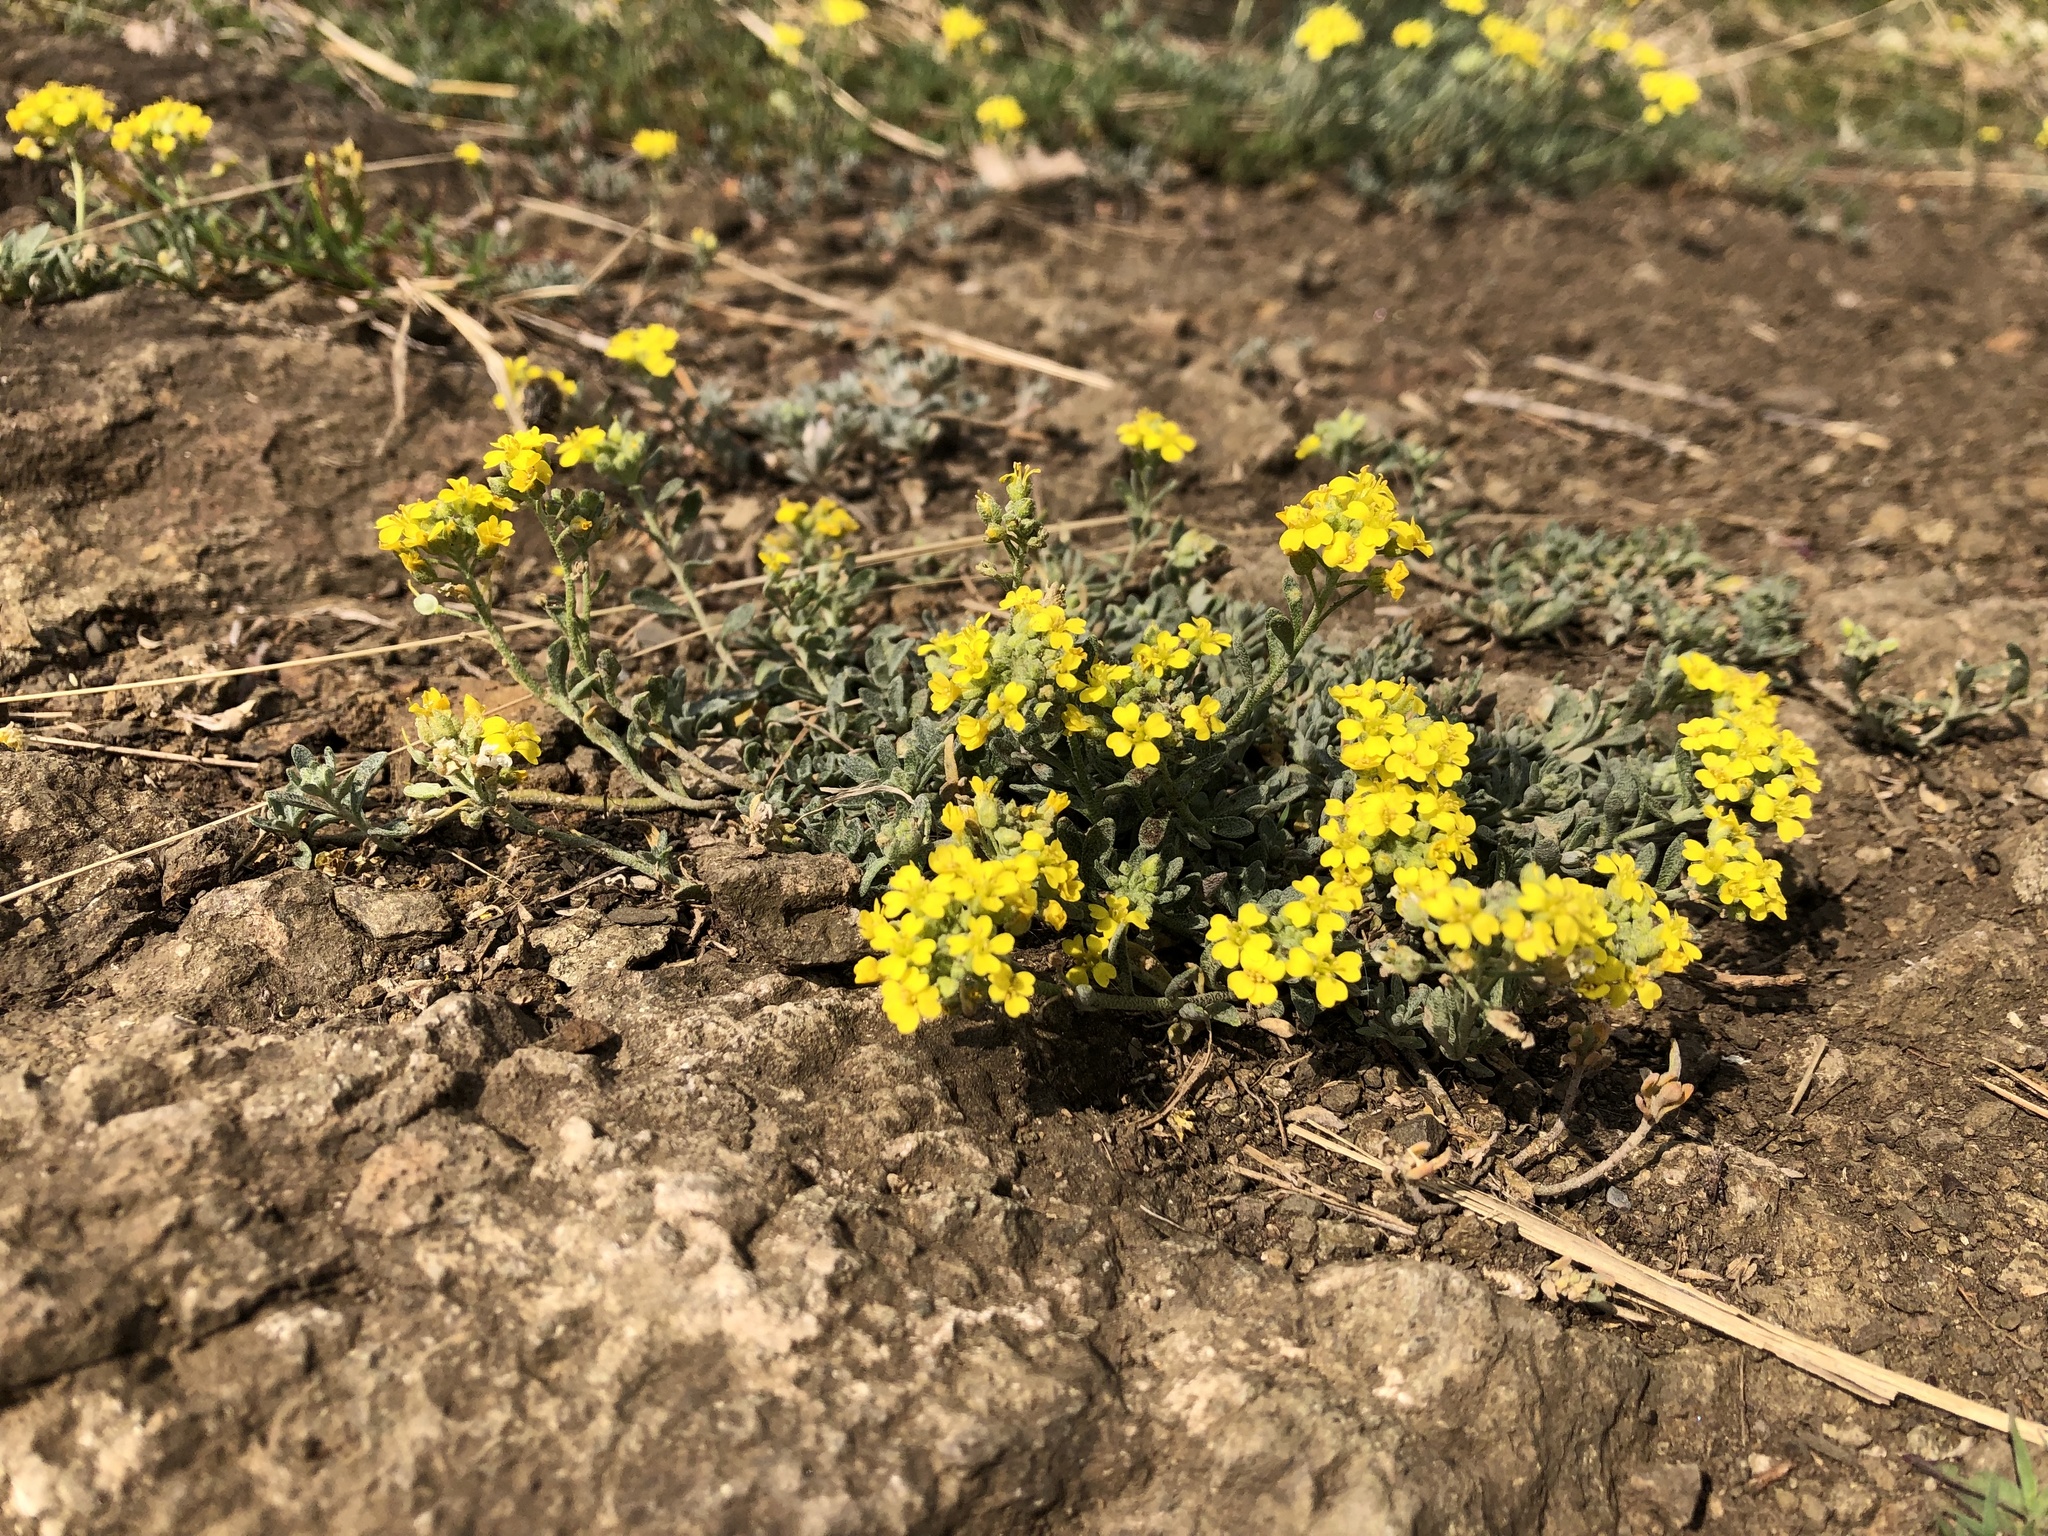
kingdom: Plantae
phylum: Tracheophyta
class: Magnoliopsida
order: Brassicales
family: Brassicaceae
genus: Alyssum
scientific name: Alyssum gmelinii
